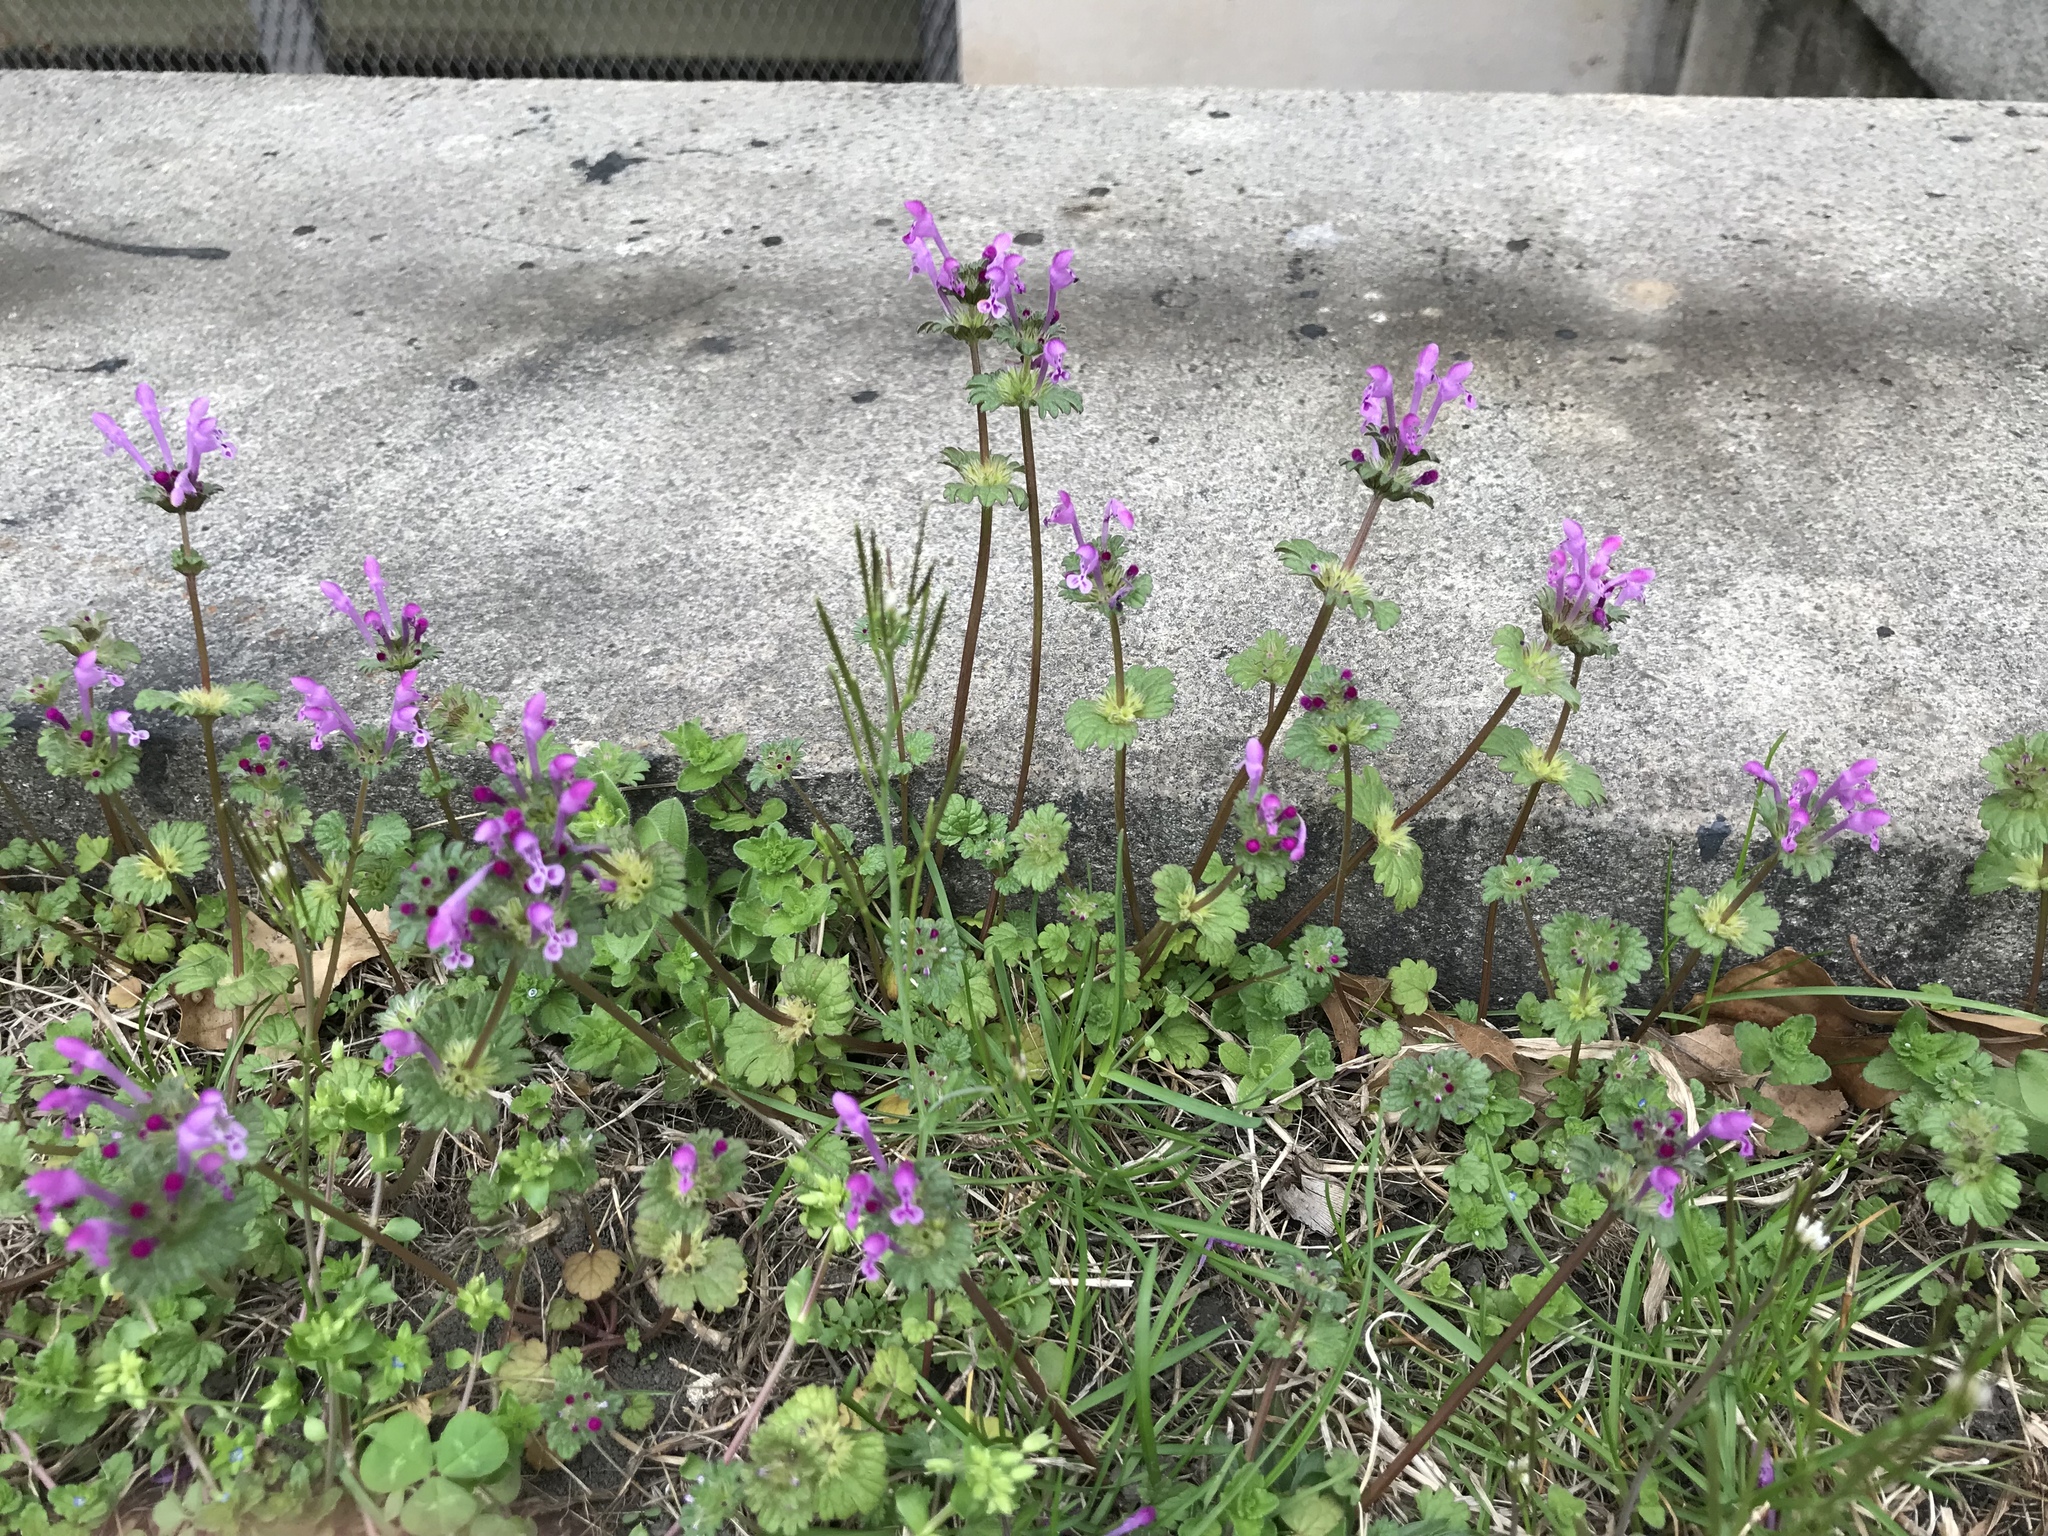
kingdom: Plantae
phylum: Tracheophyta
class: Magnoliopsida
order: Lamiales
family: Lamiaceae
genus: Lamium
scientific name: Lamium amplexicaule
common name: Henbit dead-nettle
